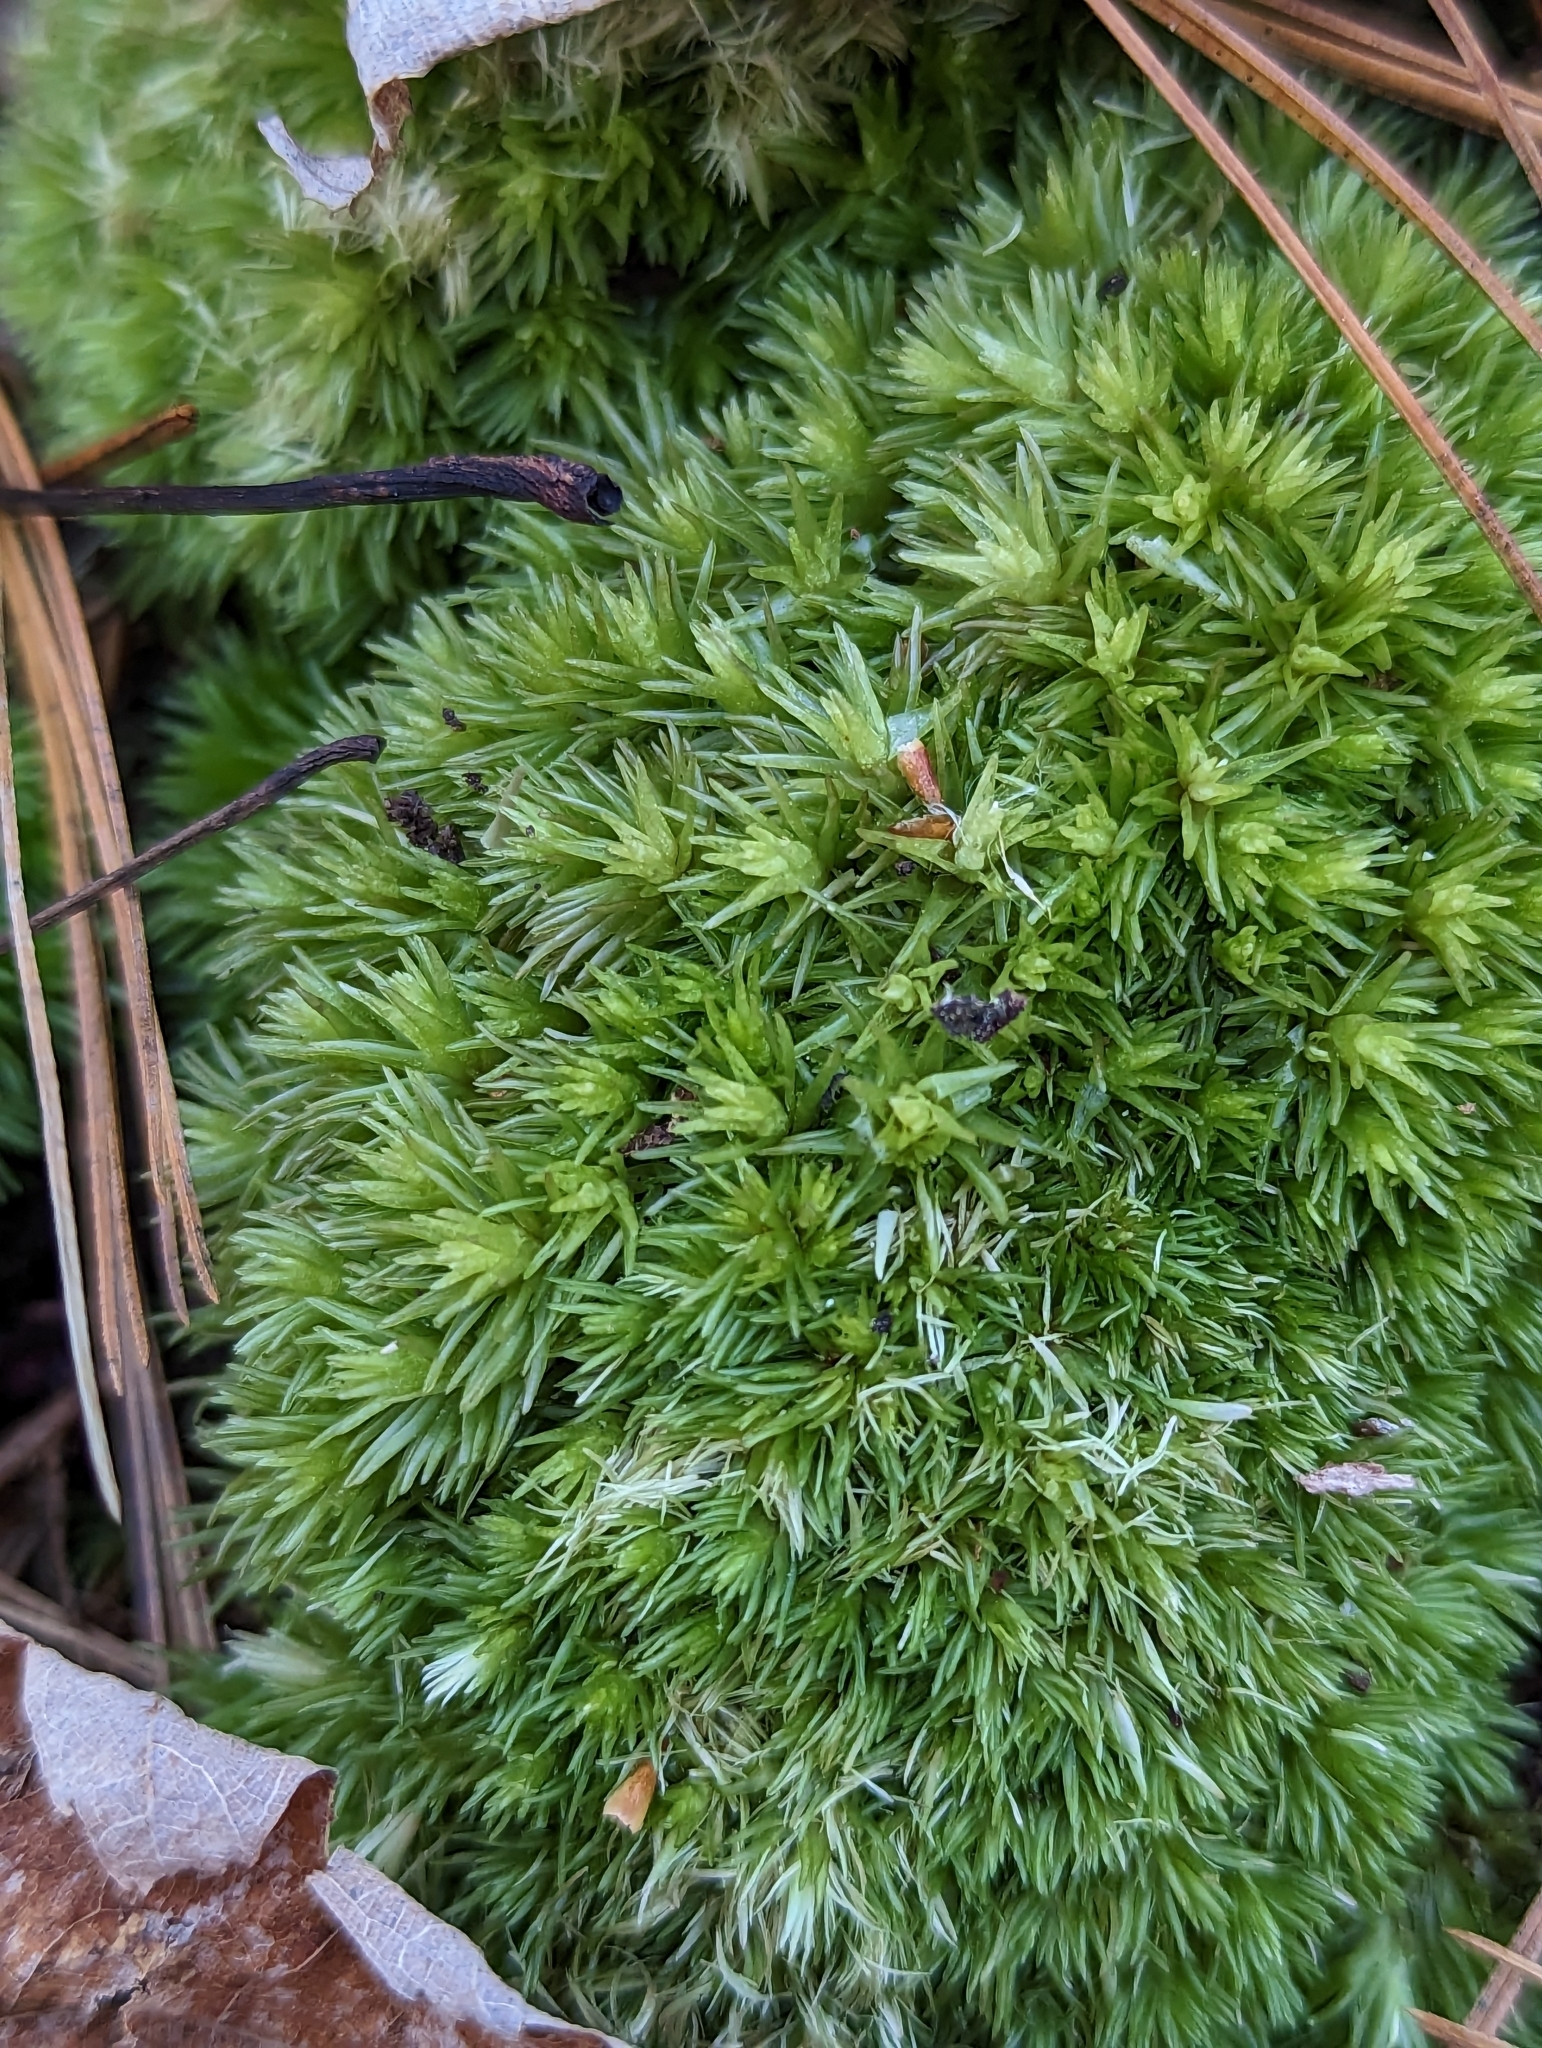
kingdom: Plantae
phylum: Bryophyta
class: Bryopsida
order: Dicranales
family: Leucobryaceae
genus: Leucobryum
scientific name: Leucobryum glaucum
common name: Large white-moss
